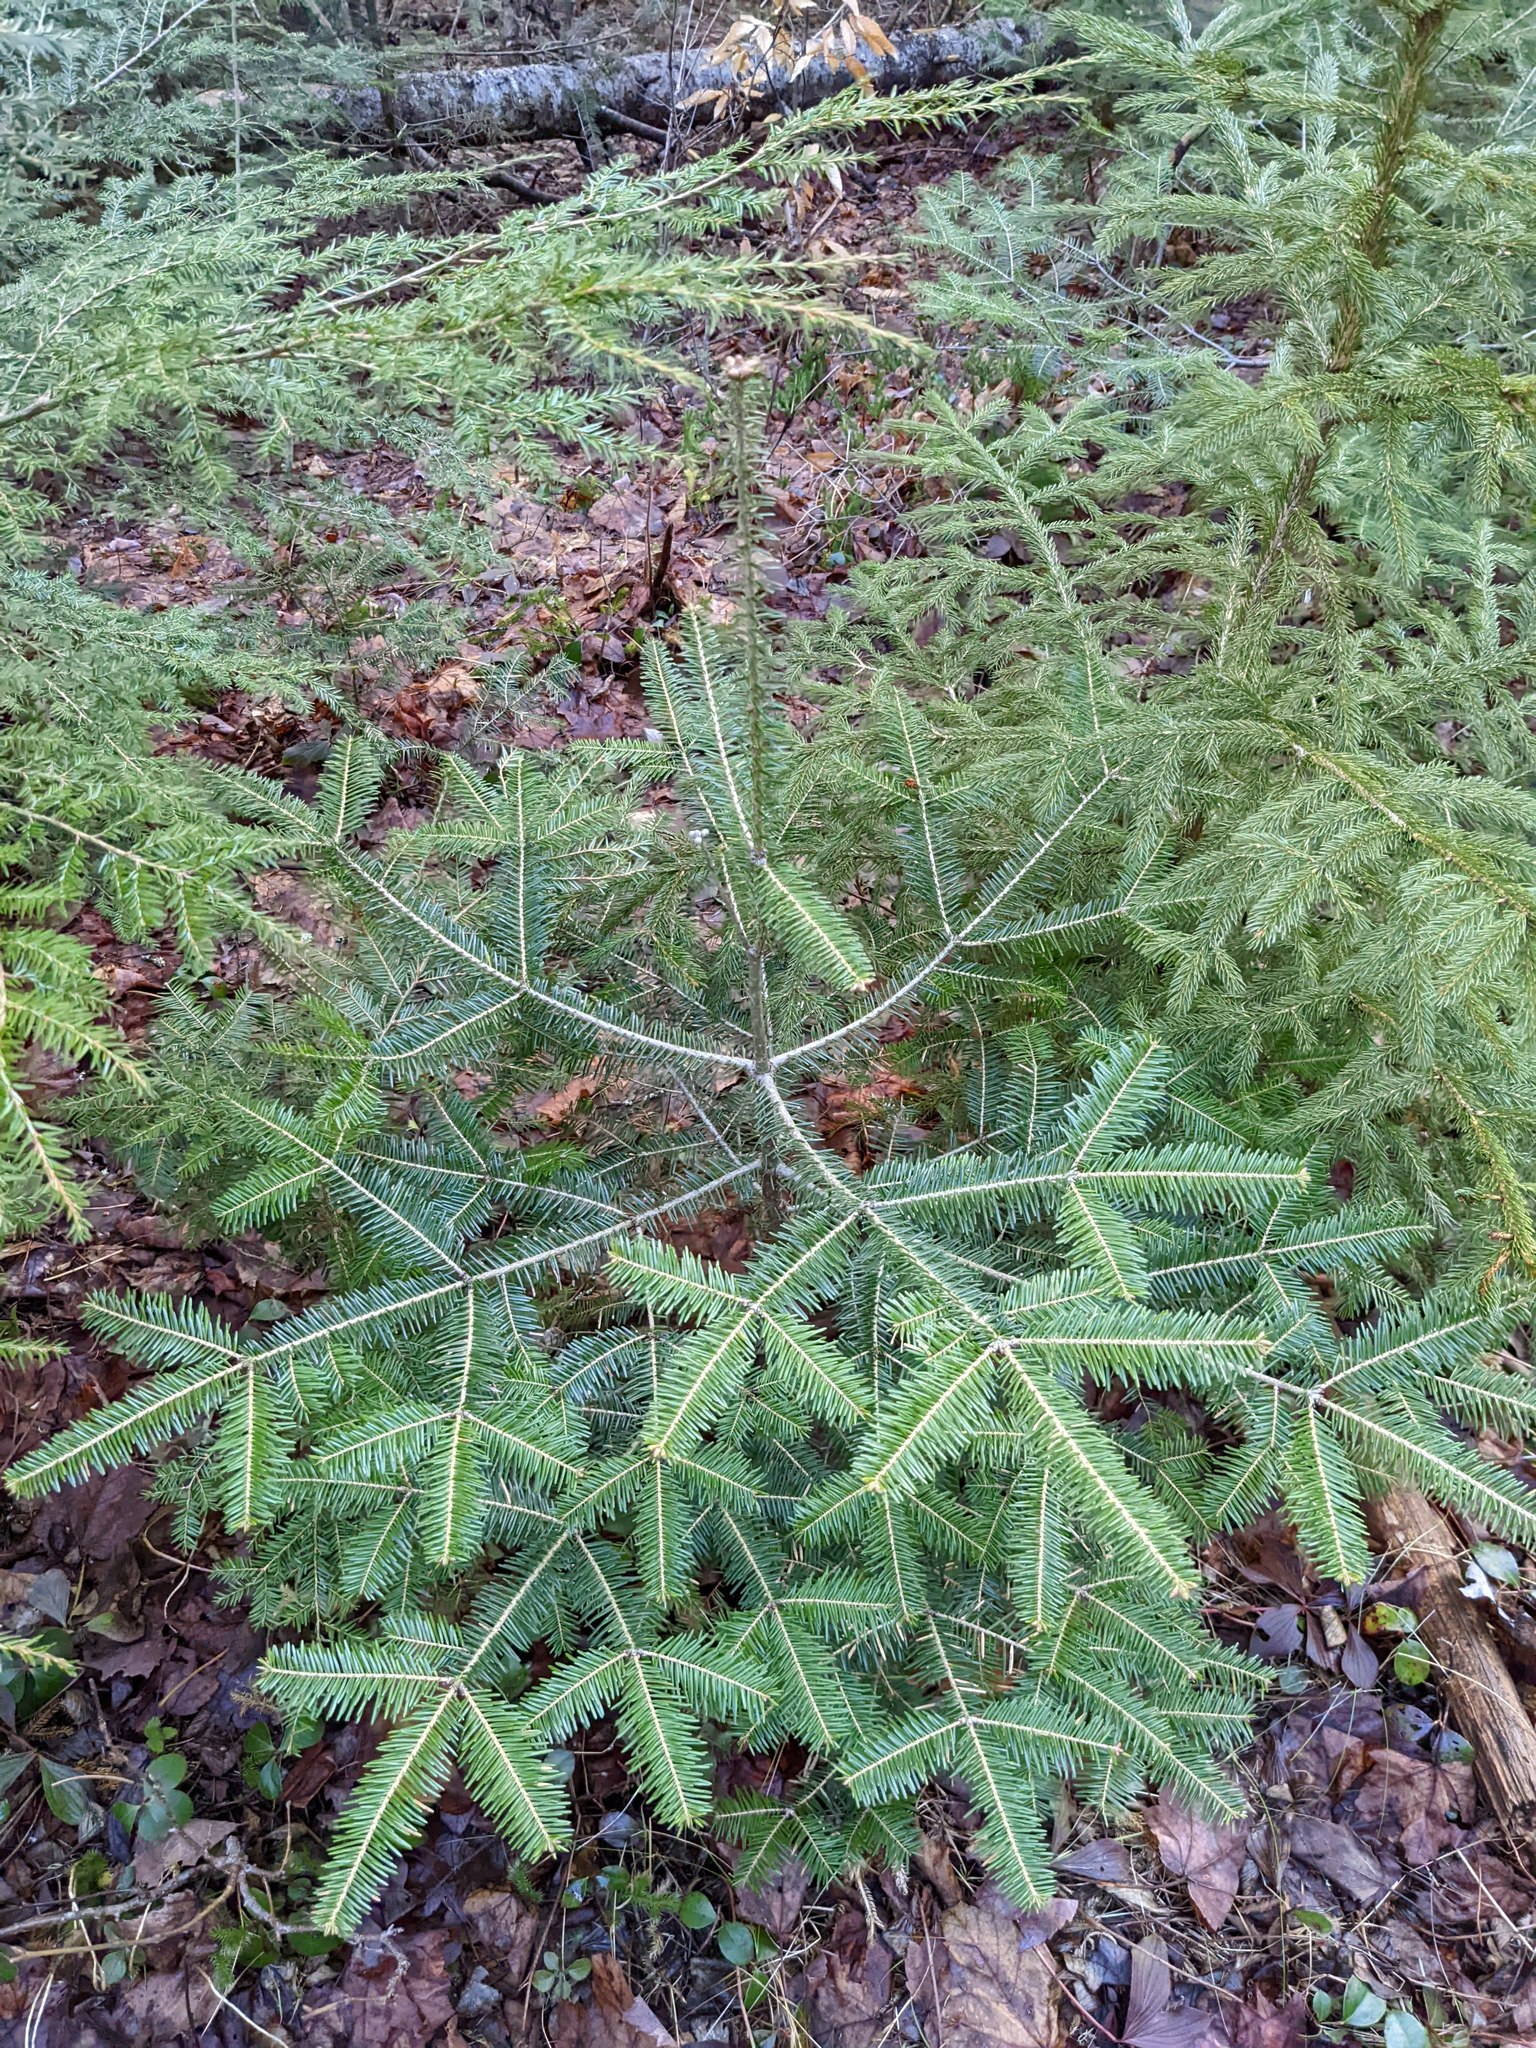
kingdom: Plantae
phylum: Tracheophyta
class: Pinopsida
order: Pinales
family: Pinaceae
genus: Abies
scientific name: Abies balsamea
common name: Balsam fir
